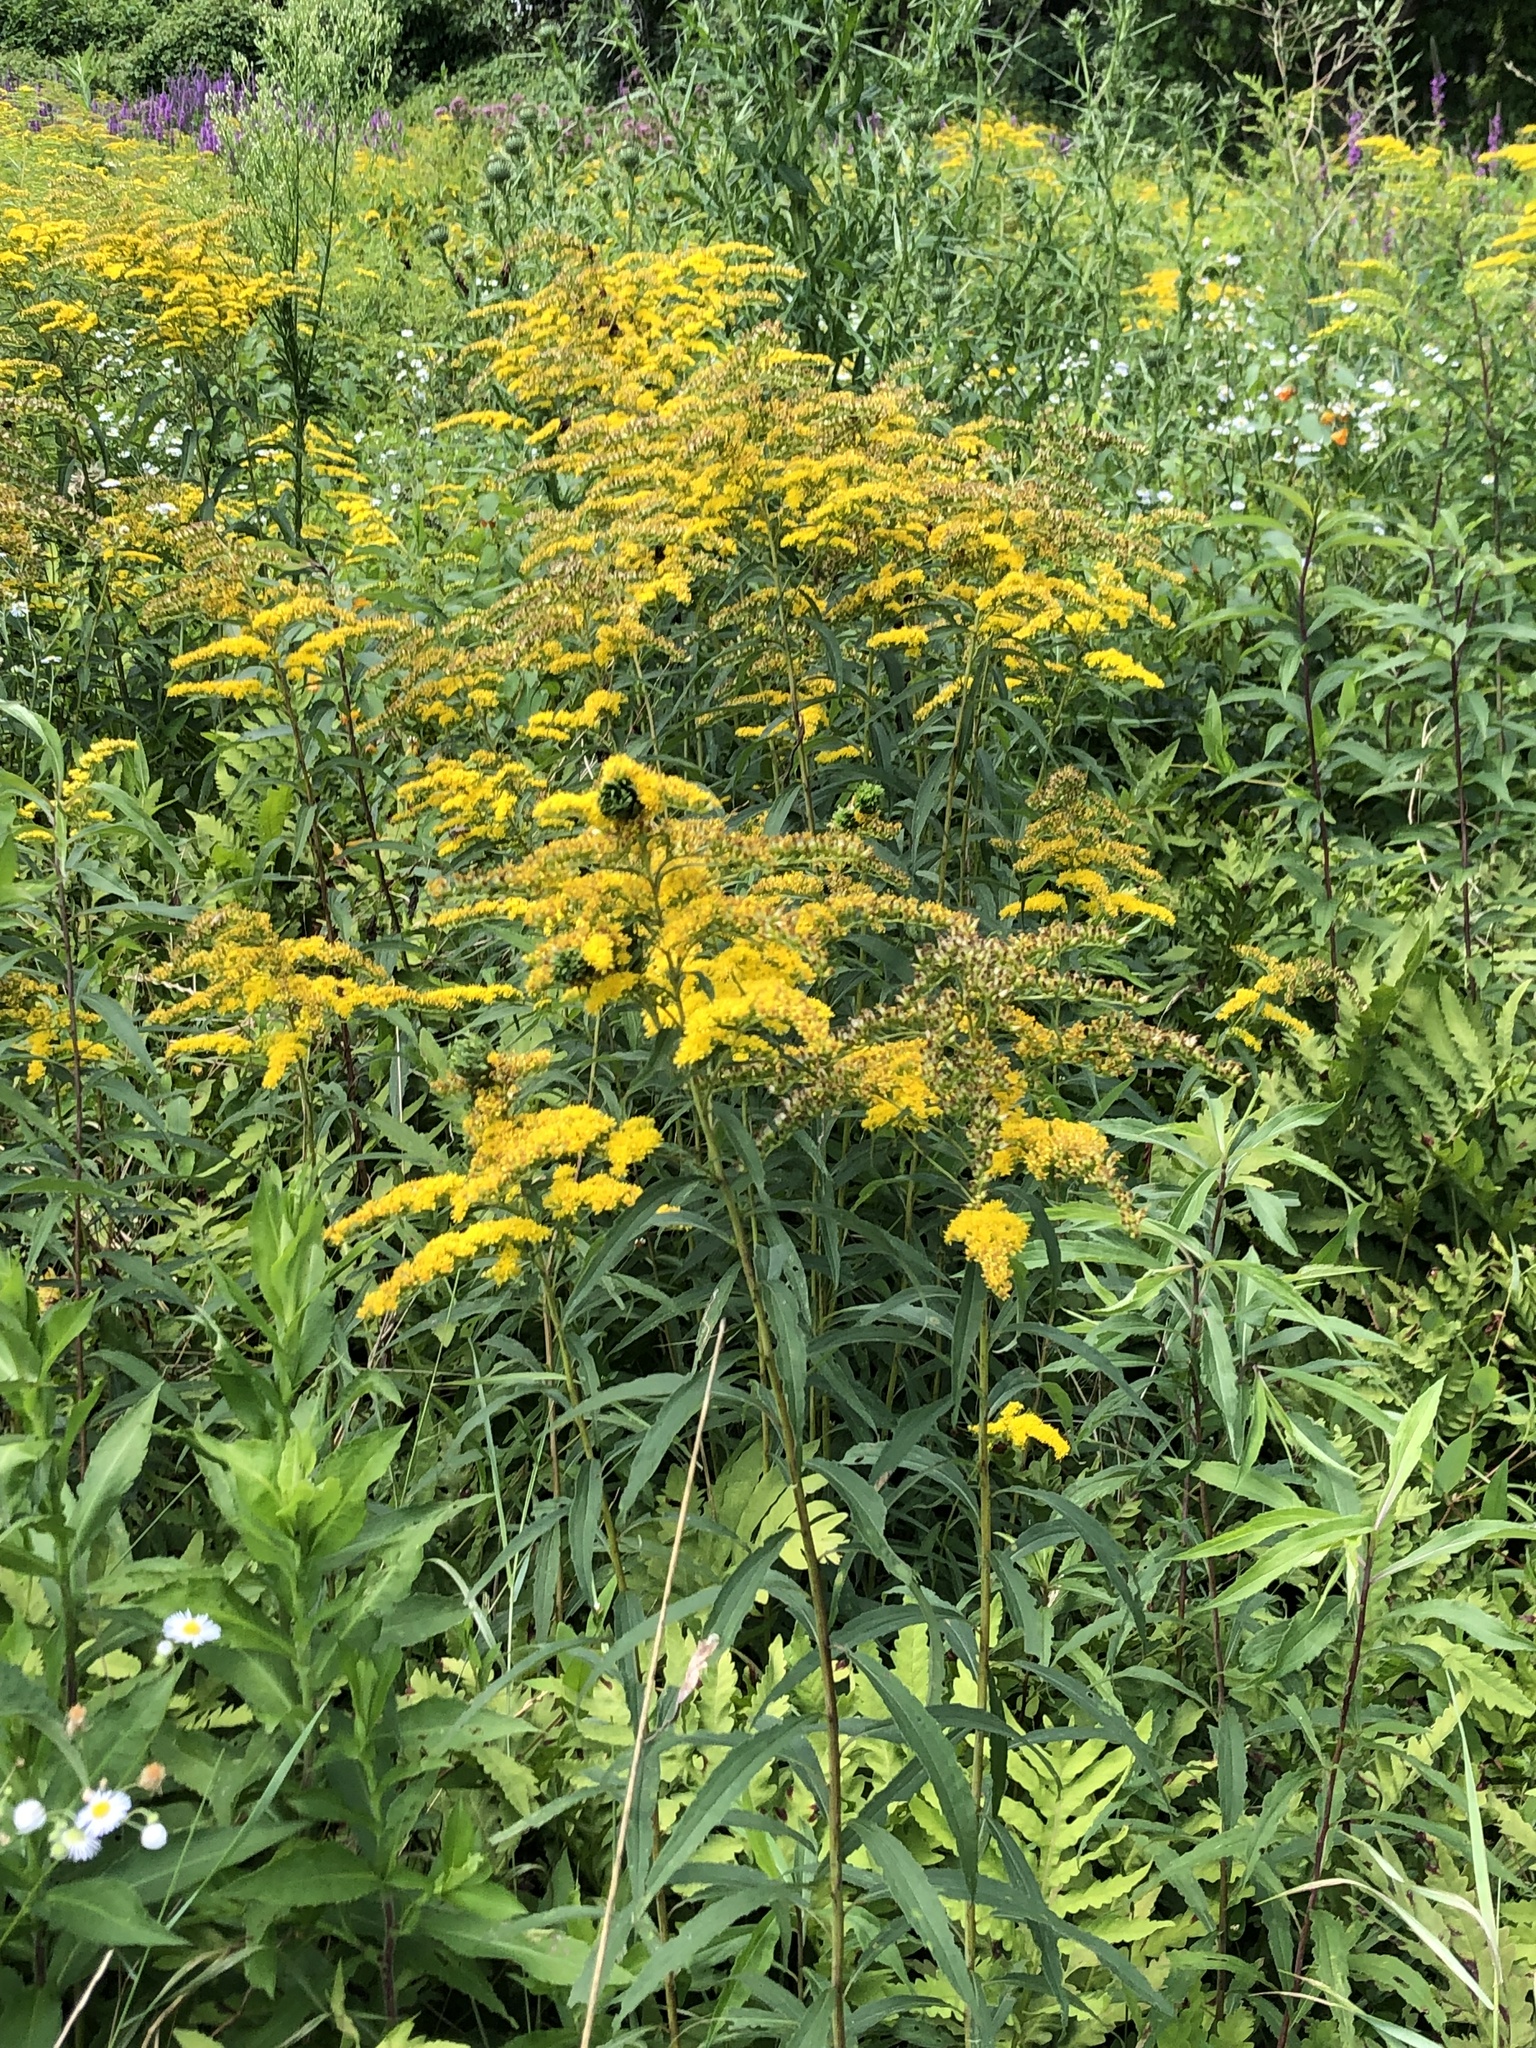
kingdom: Animalia
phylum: Arthropoda
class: Insecta
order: Diptera
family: Cecidomyiidae
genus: Rhopalomyia
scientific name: Rhopalomyia capitata
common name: Giant goldenrod bunch gall midge
